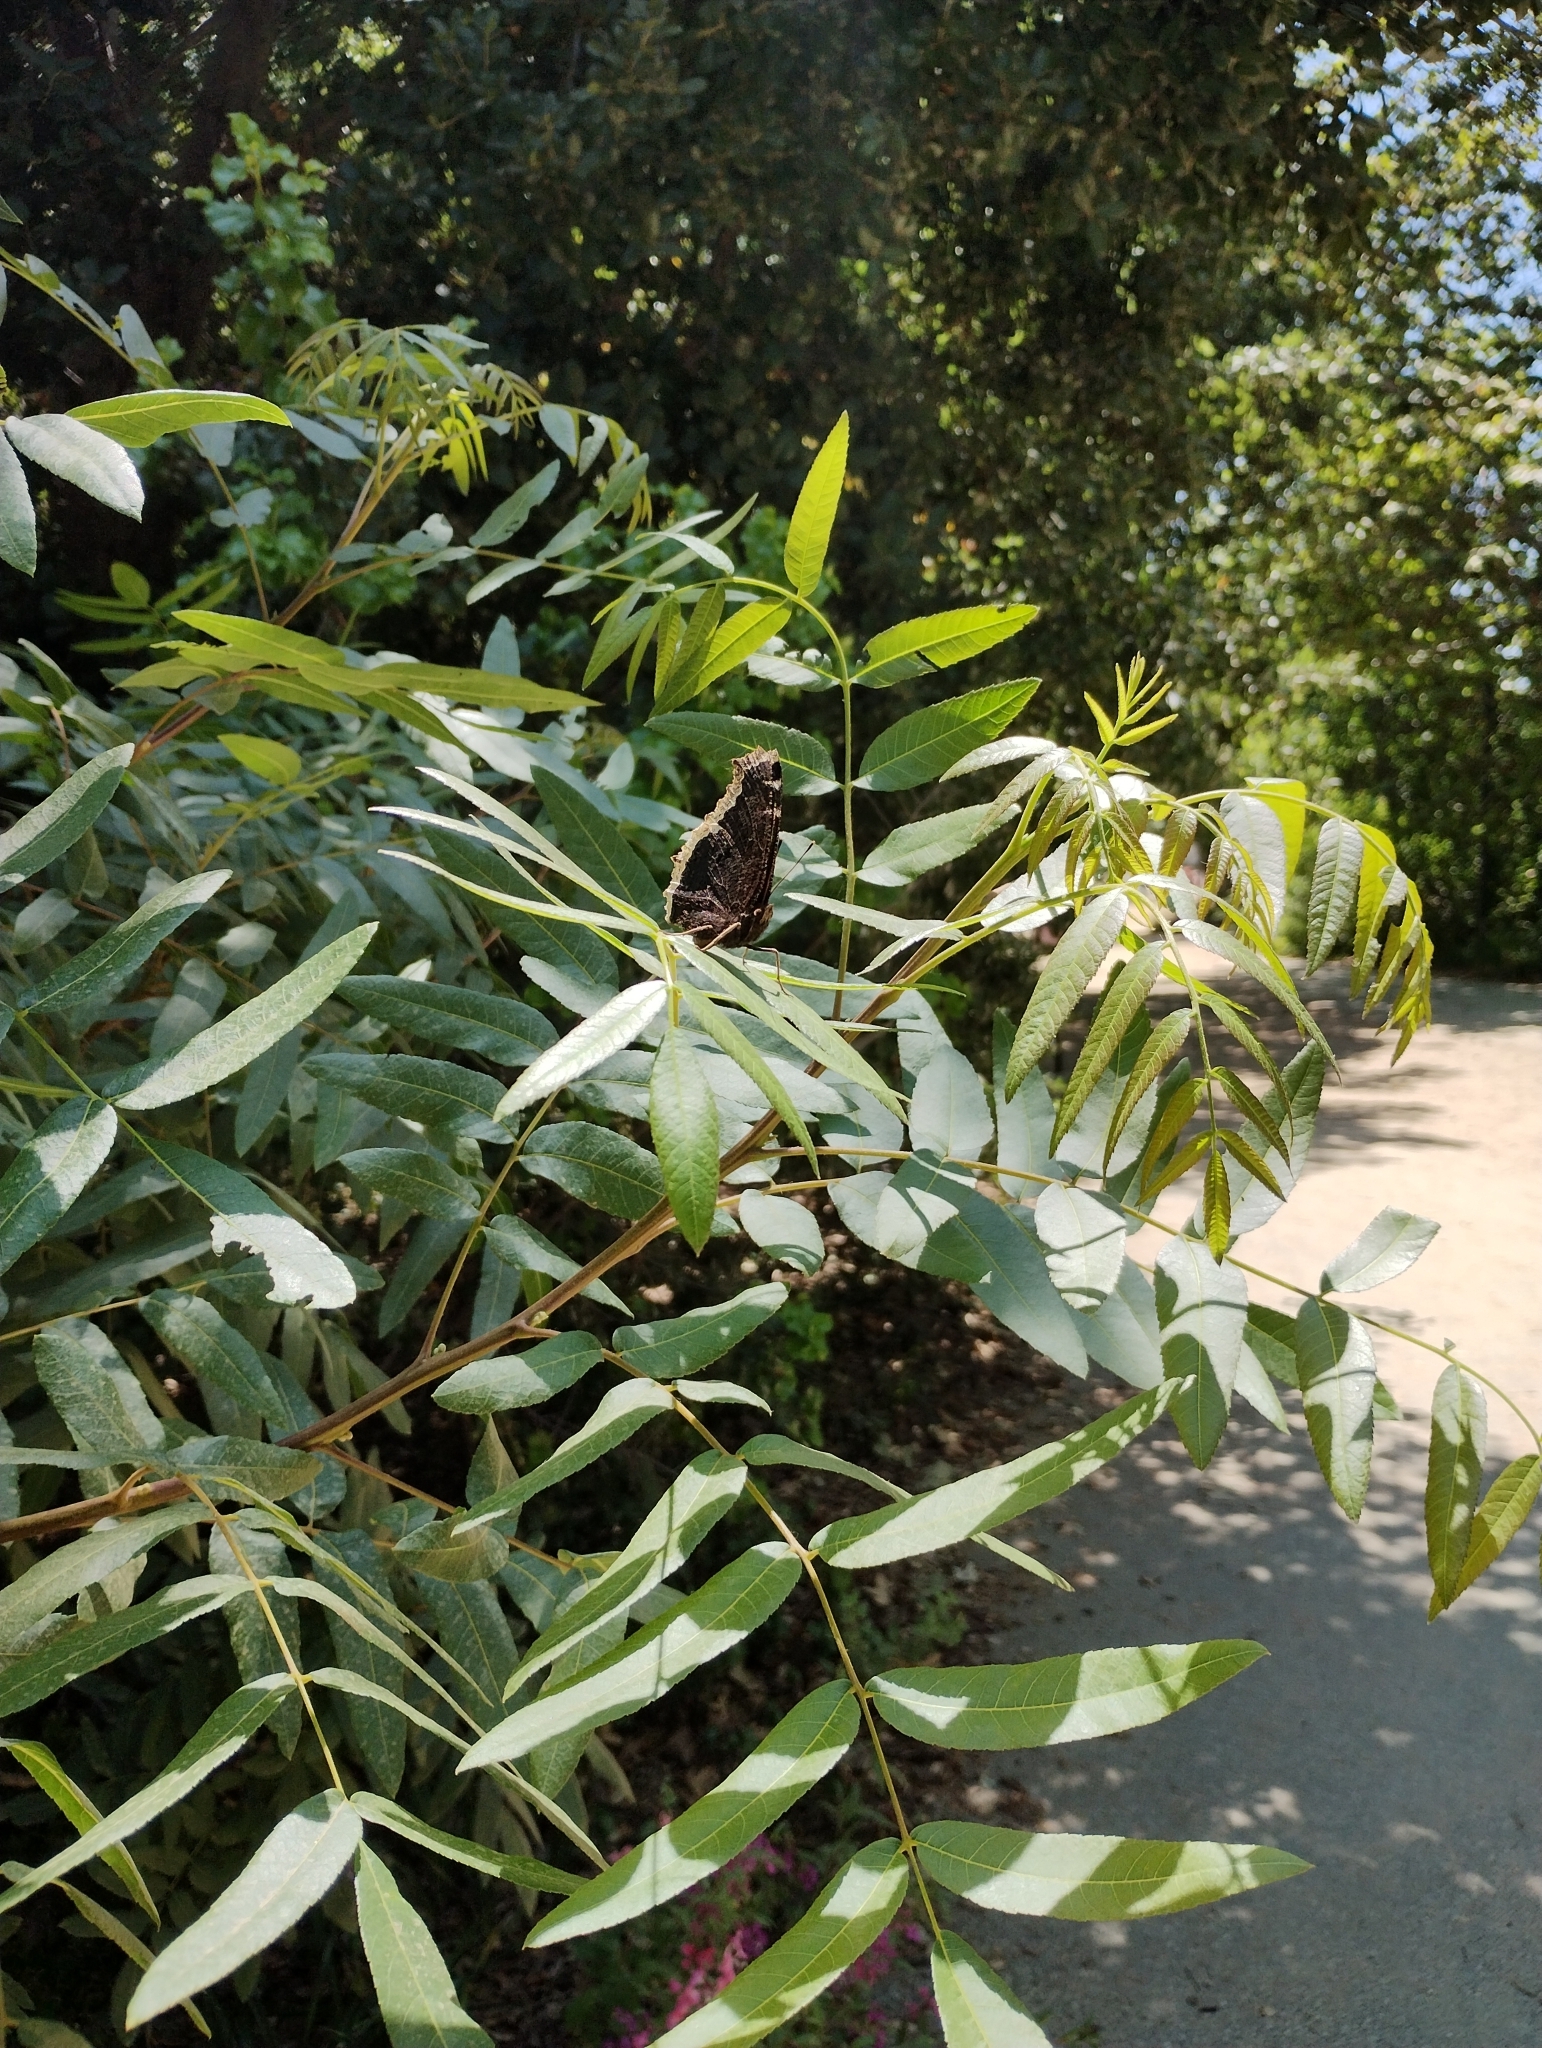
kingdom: Animalia
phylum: Arthropoda
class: Insecta
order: Lepidoptera
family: Nymphalidae
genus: Nymphalis
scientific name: Nymphalis antiopa
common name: Camberwell beauty
